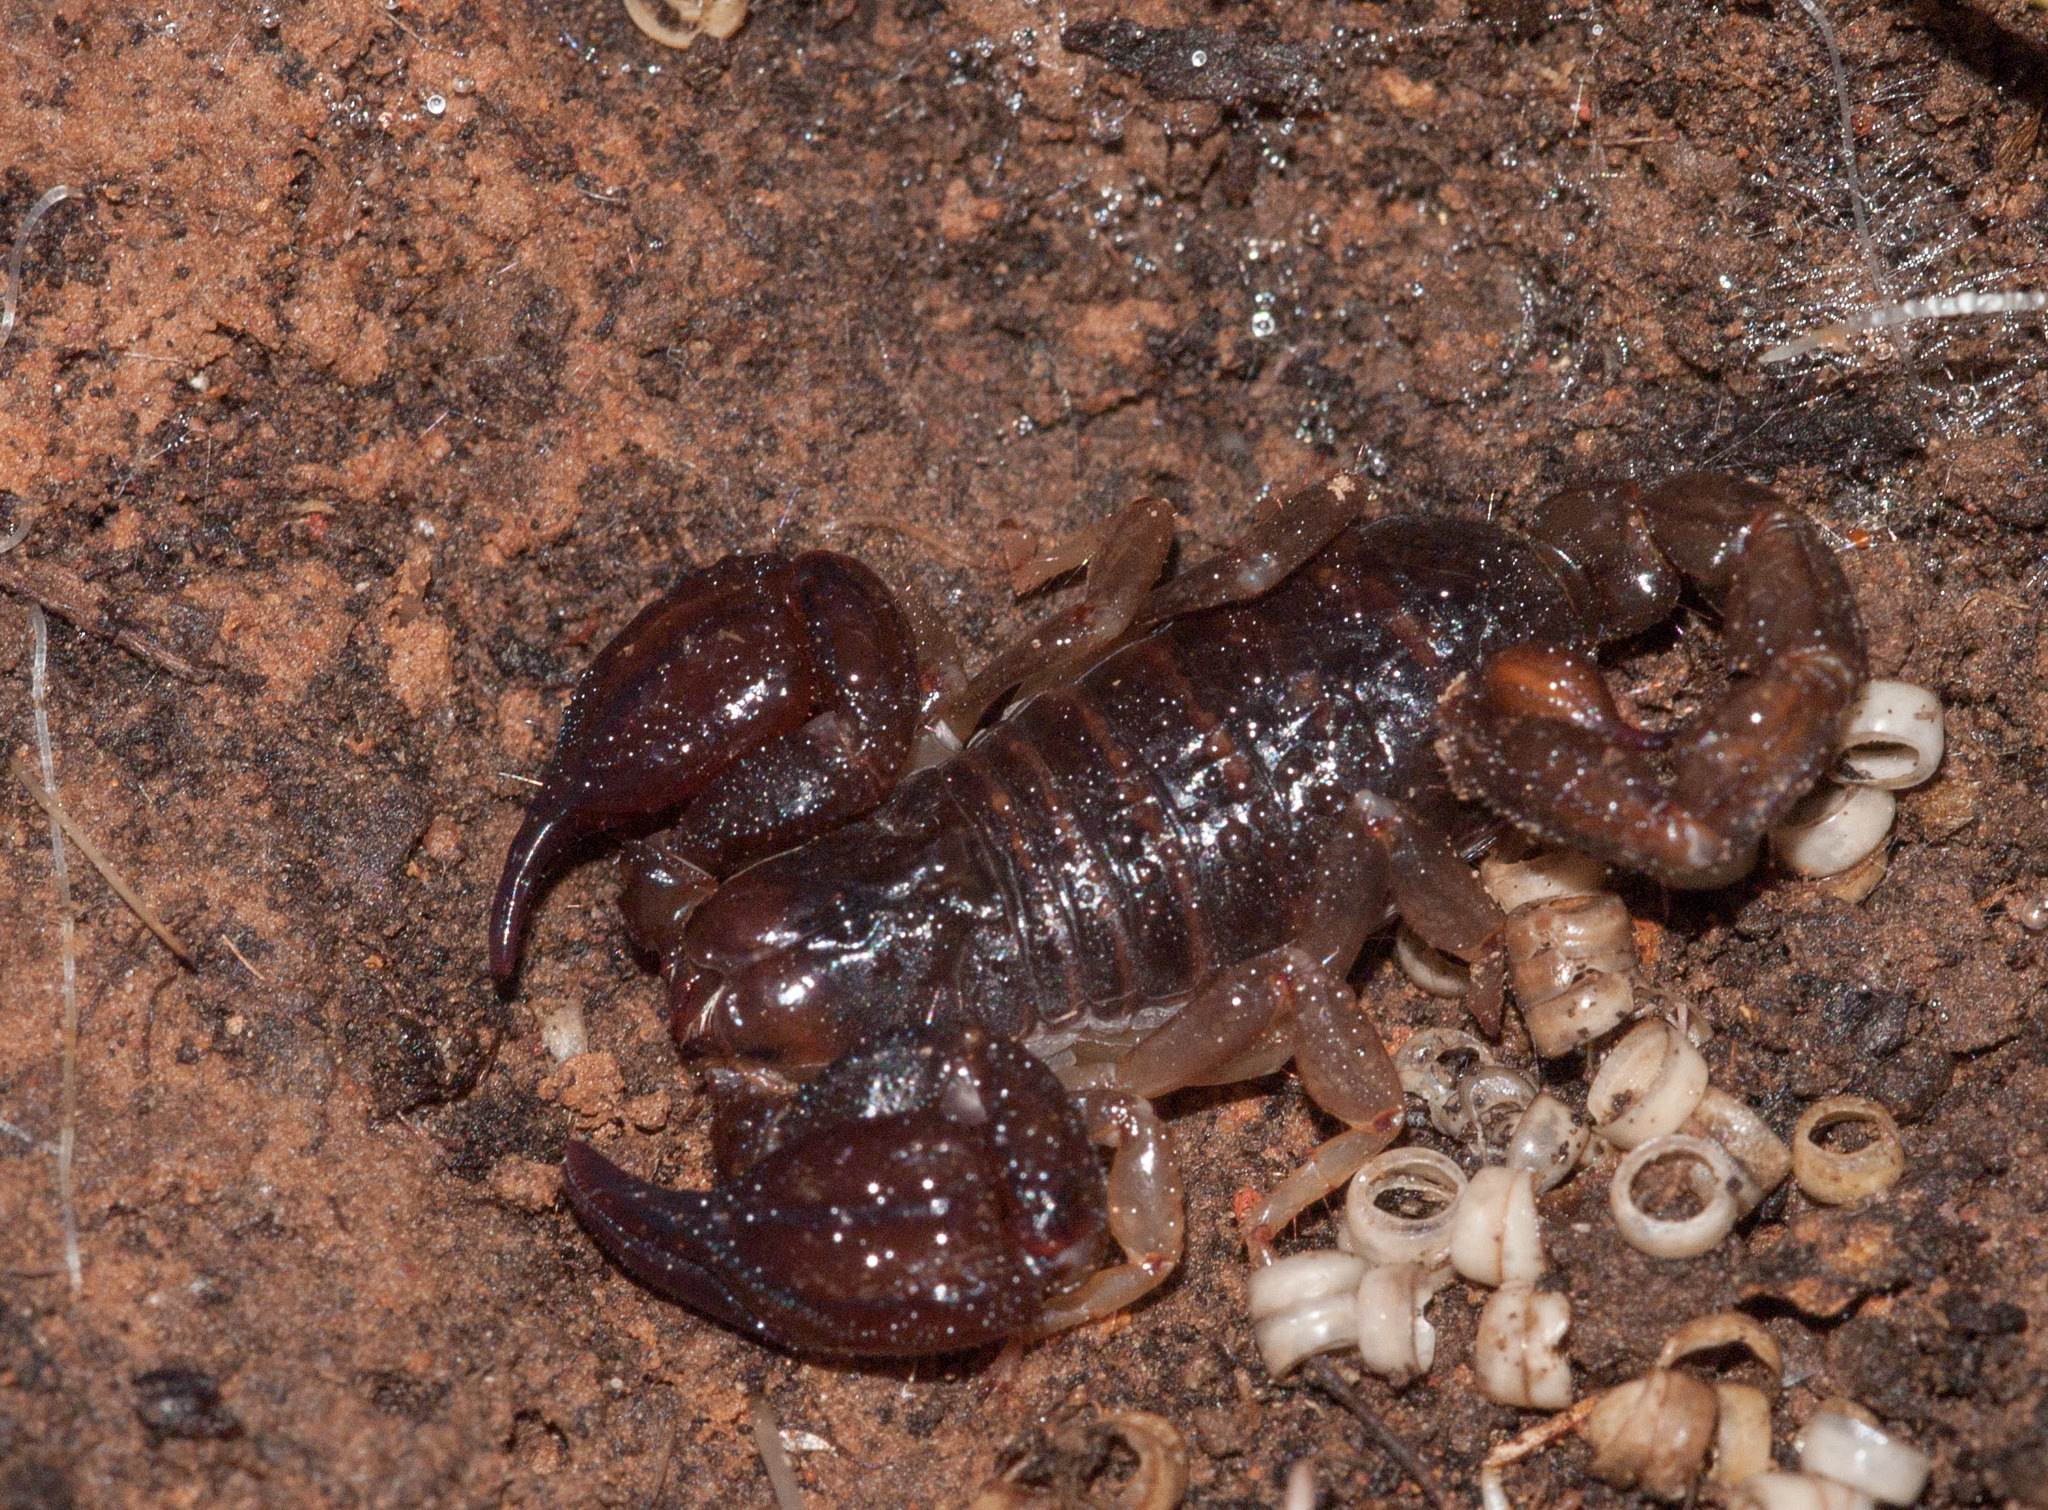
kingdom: Animalia
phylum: Arthropoda
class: Arachnida
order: Scorpiones
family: Scorpionidae
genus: Urodacus
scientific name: Urodacus manicatus
